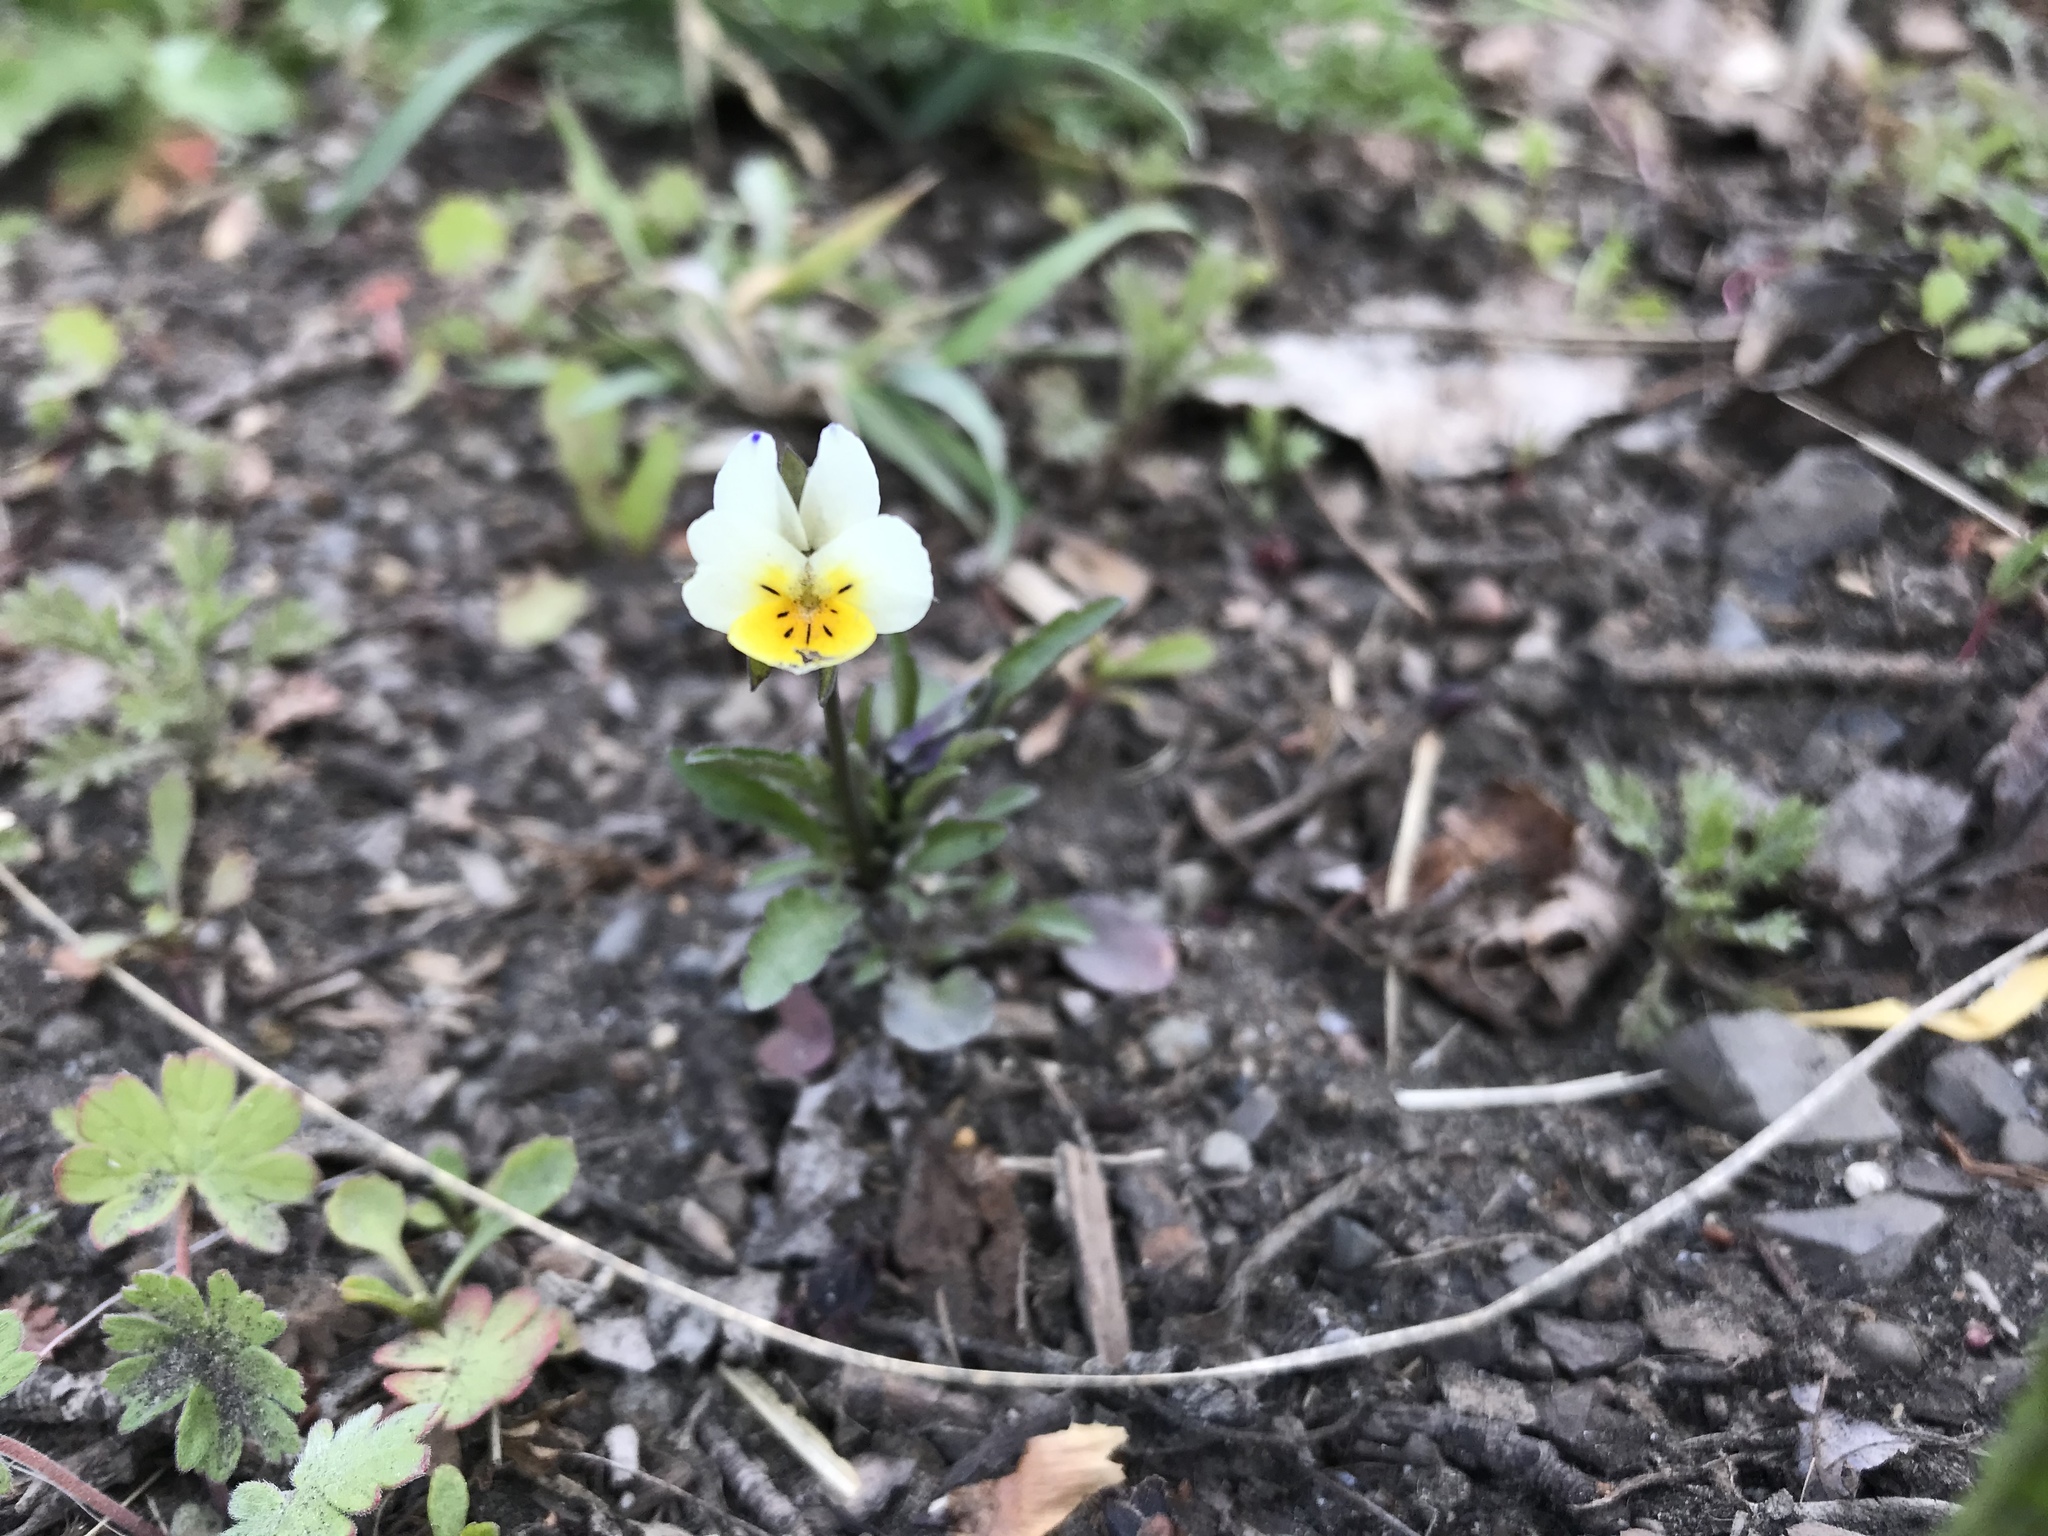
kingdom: Plantae
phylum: Tracheophyta
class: Magnoliopsida
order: Malpighiales
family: Violaceae
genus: Viola
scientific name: Viola arvensis
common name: Field pansy
